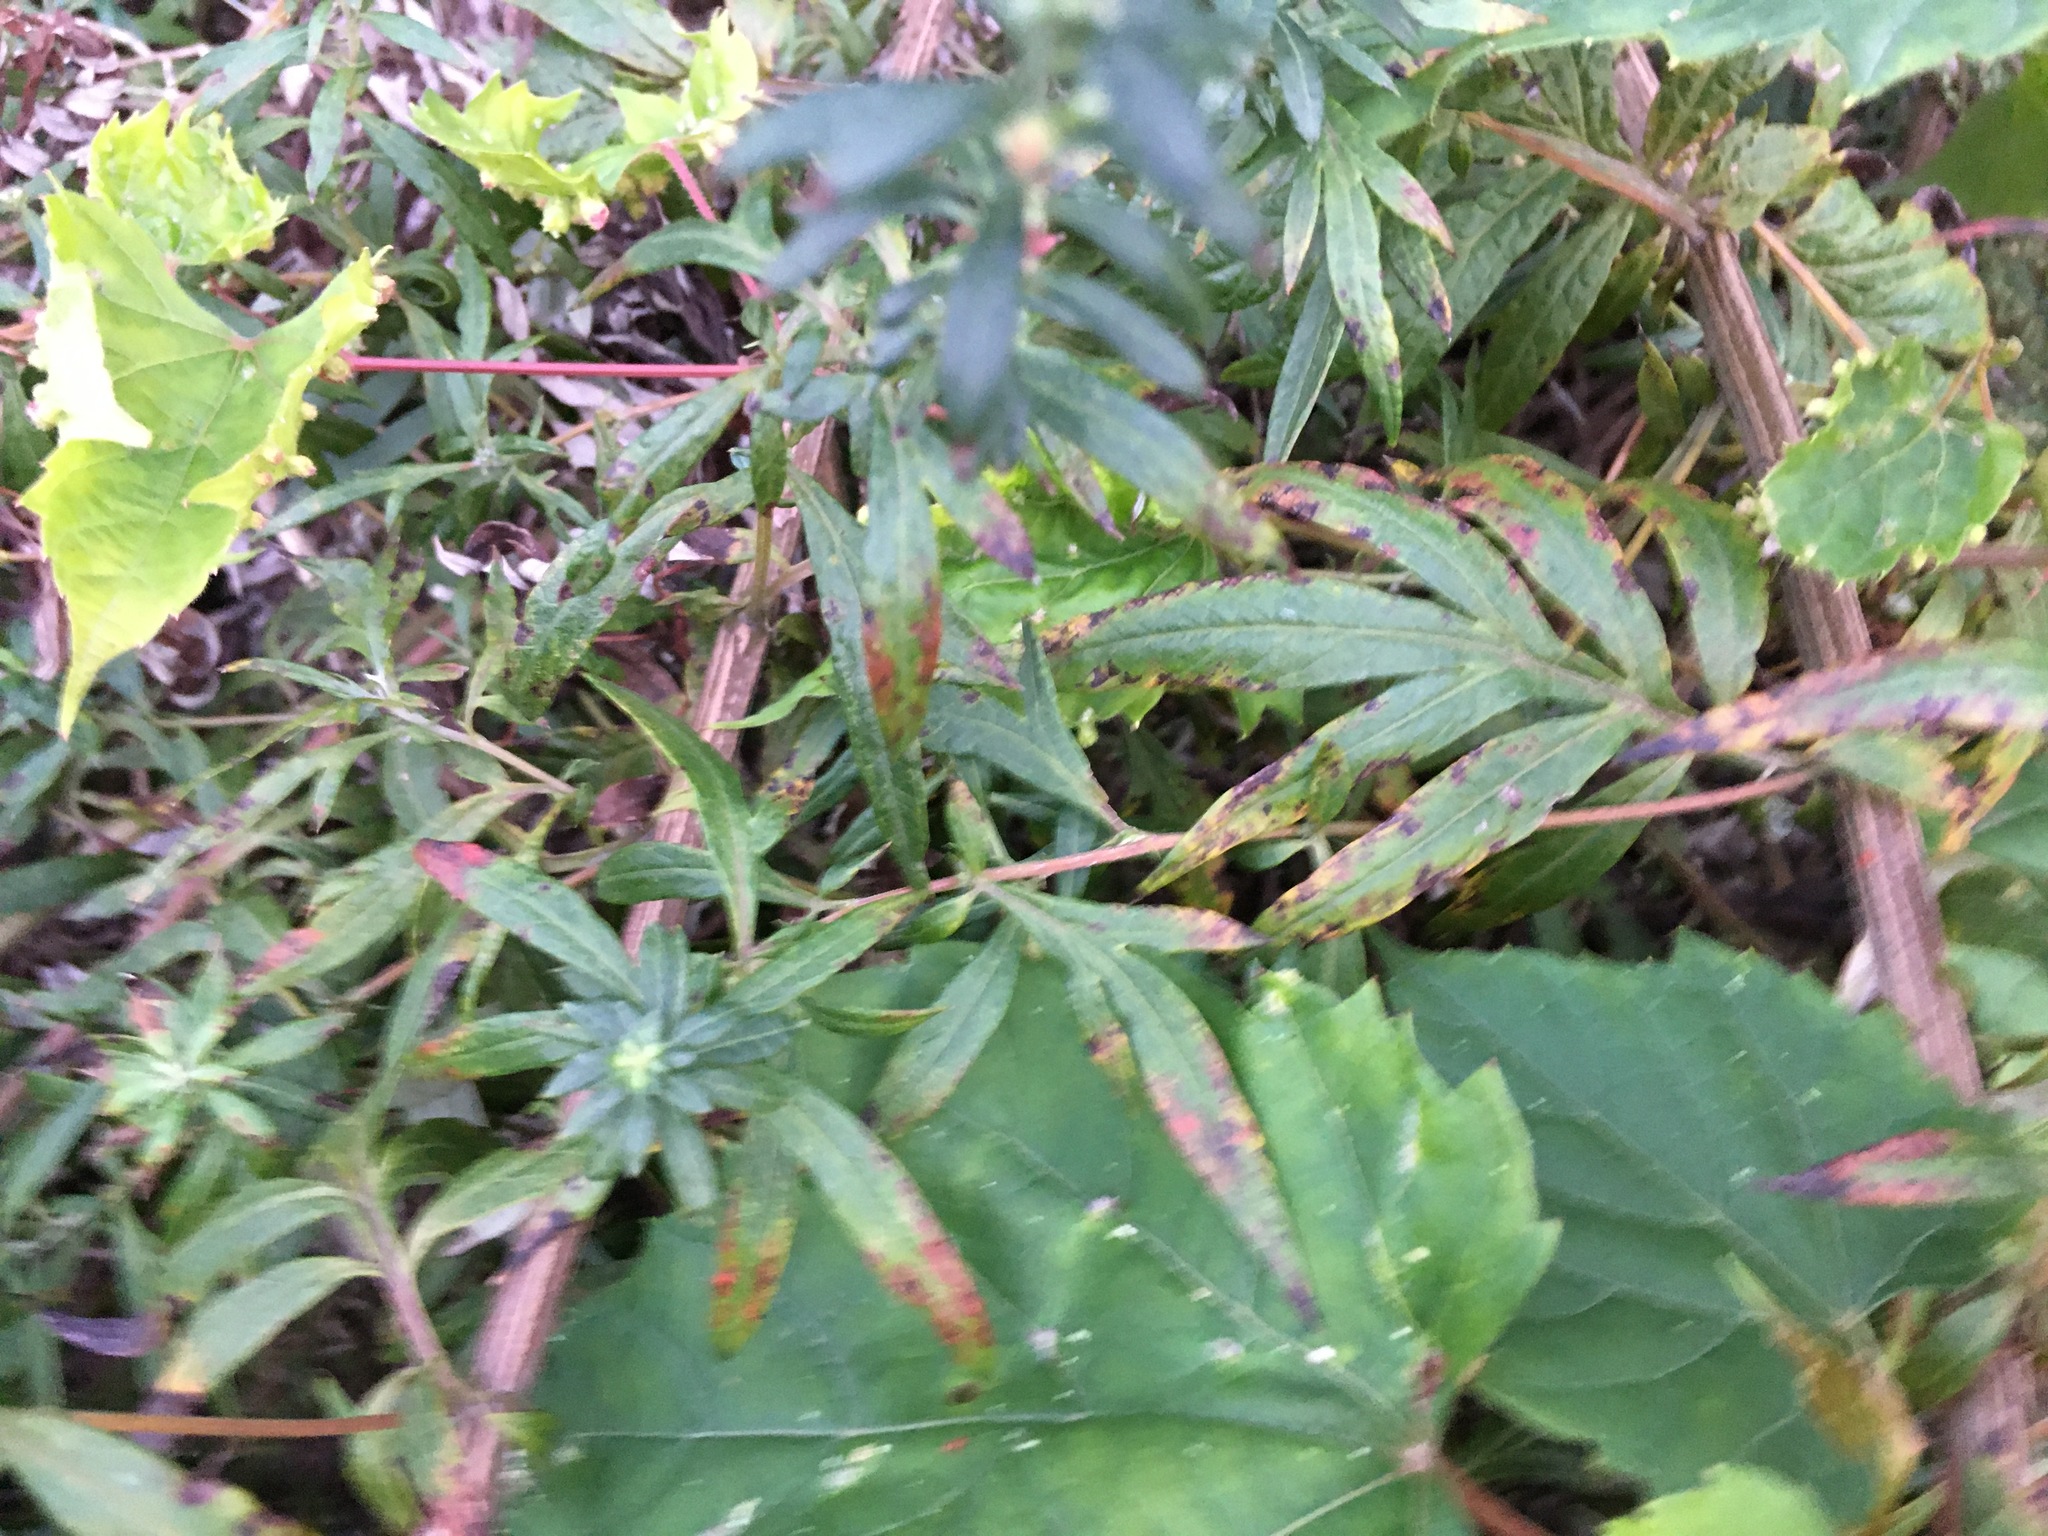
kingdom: Plantae
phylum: Tracheophyta
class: Magnoliopsida
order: Asterales
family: Asteraceae
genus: Artemisia
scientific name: Artemisia vulgaris
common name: Mugwort
